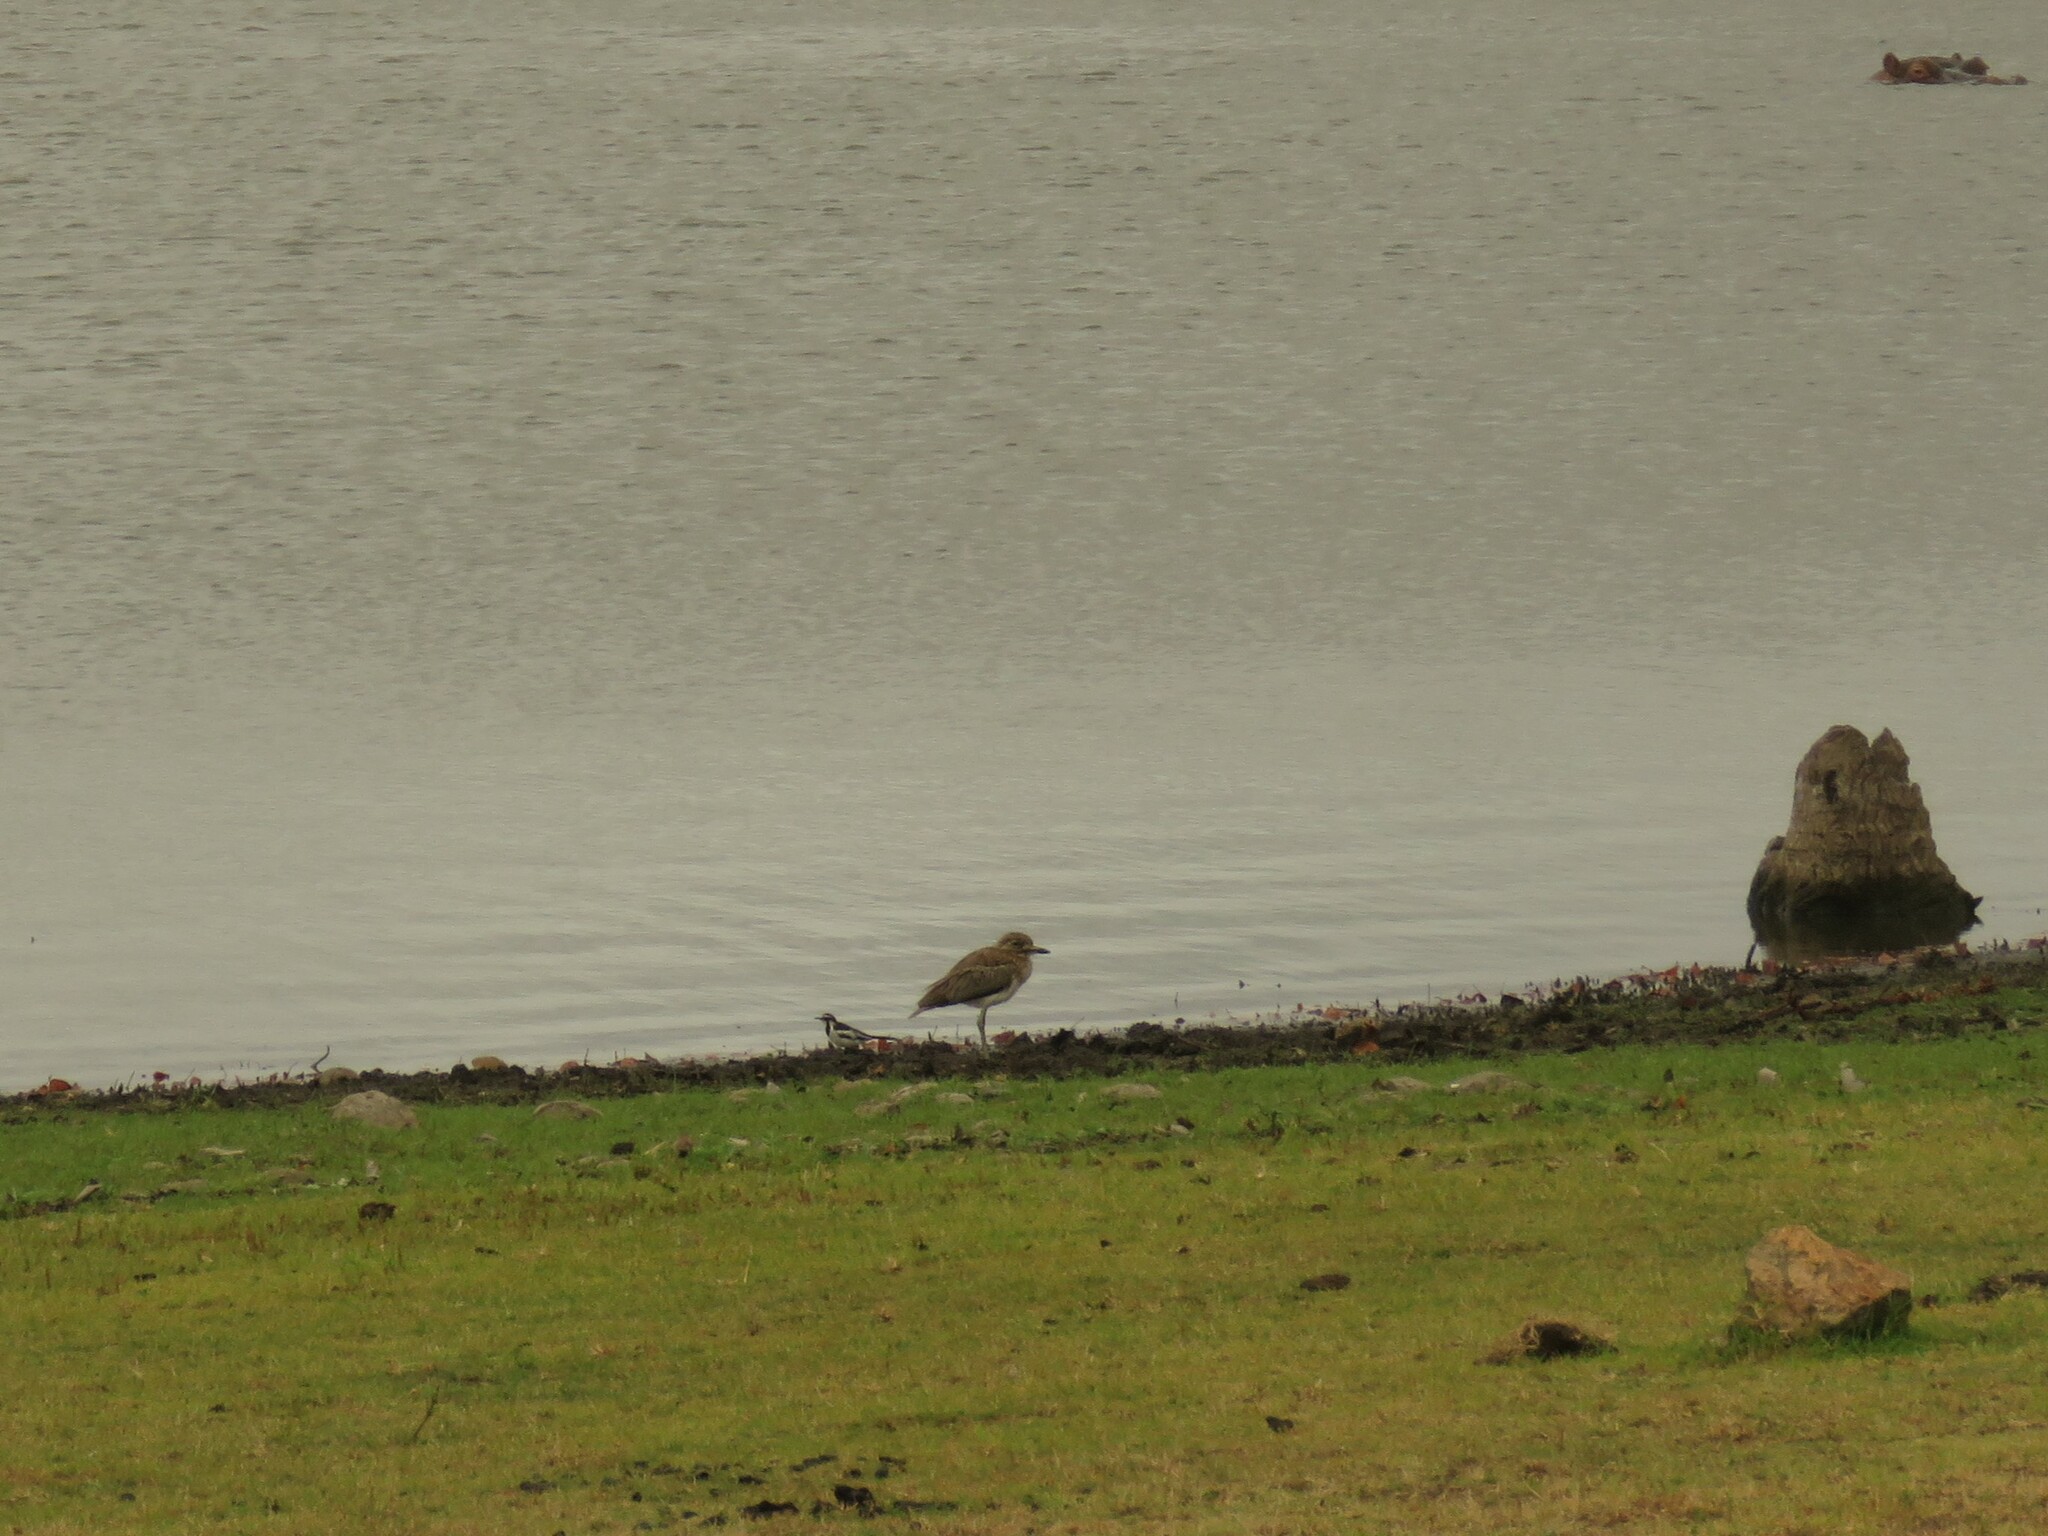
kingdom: Animalia
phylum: Chordata
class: Aves
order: Charadriiformes
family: Burhinidae
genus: Burhinus
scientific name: Burhinus vermiculatus
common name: Water thick-knee
